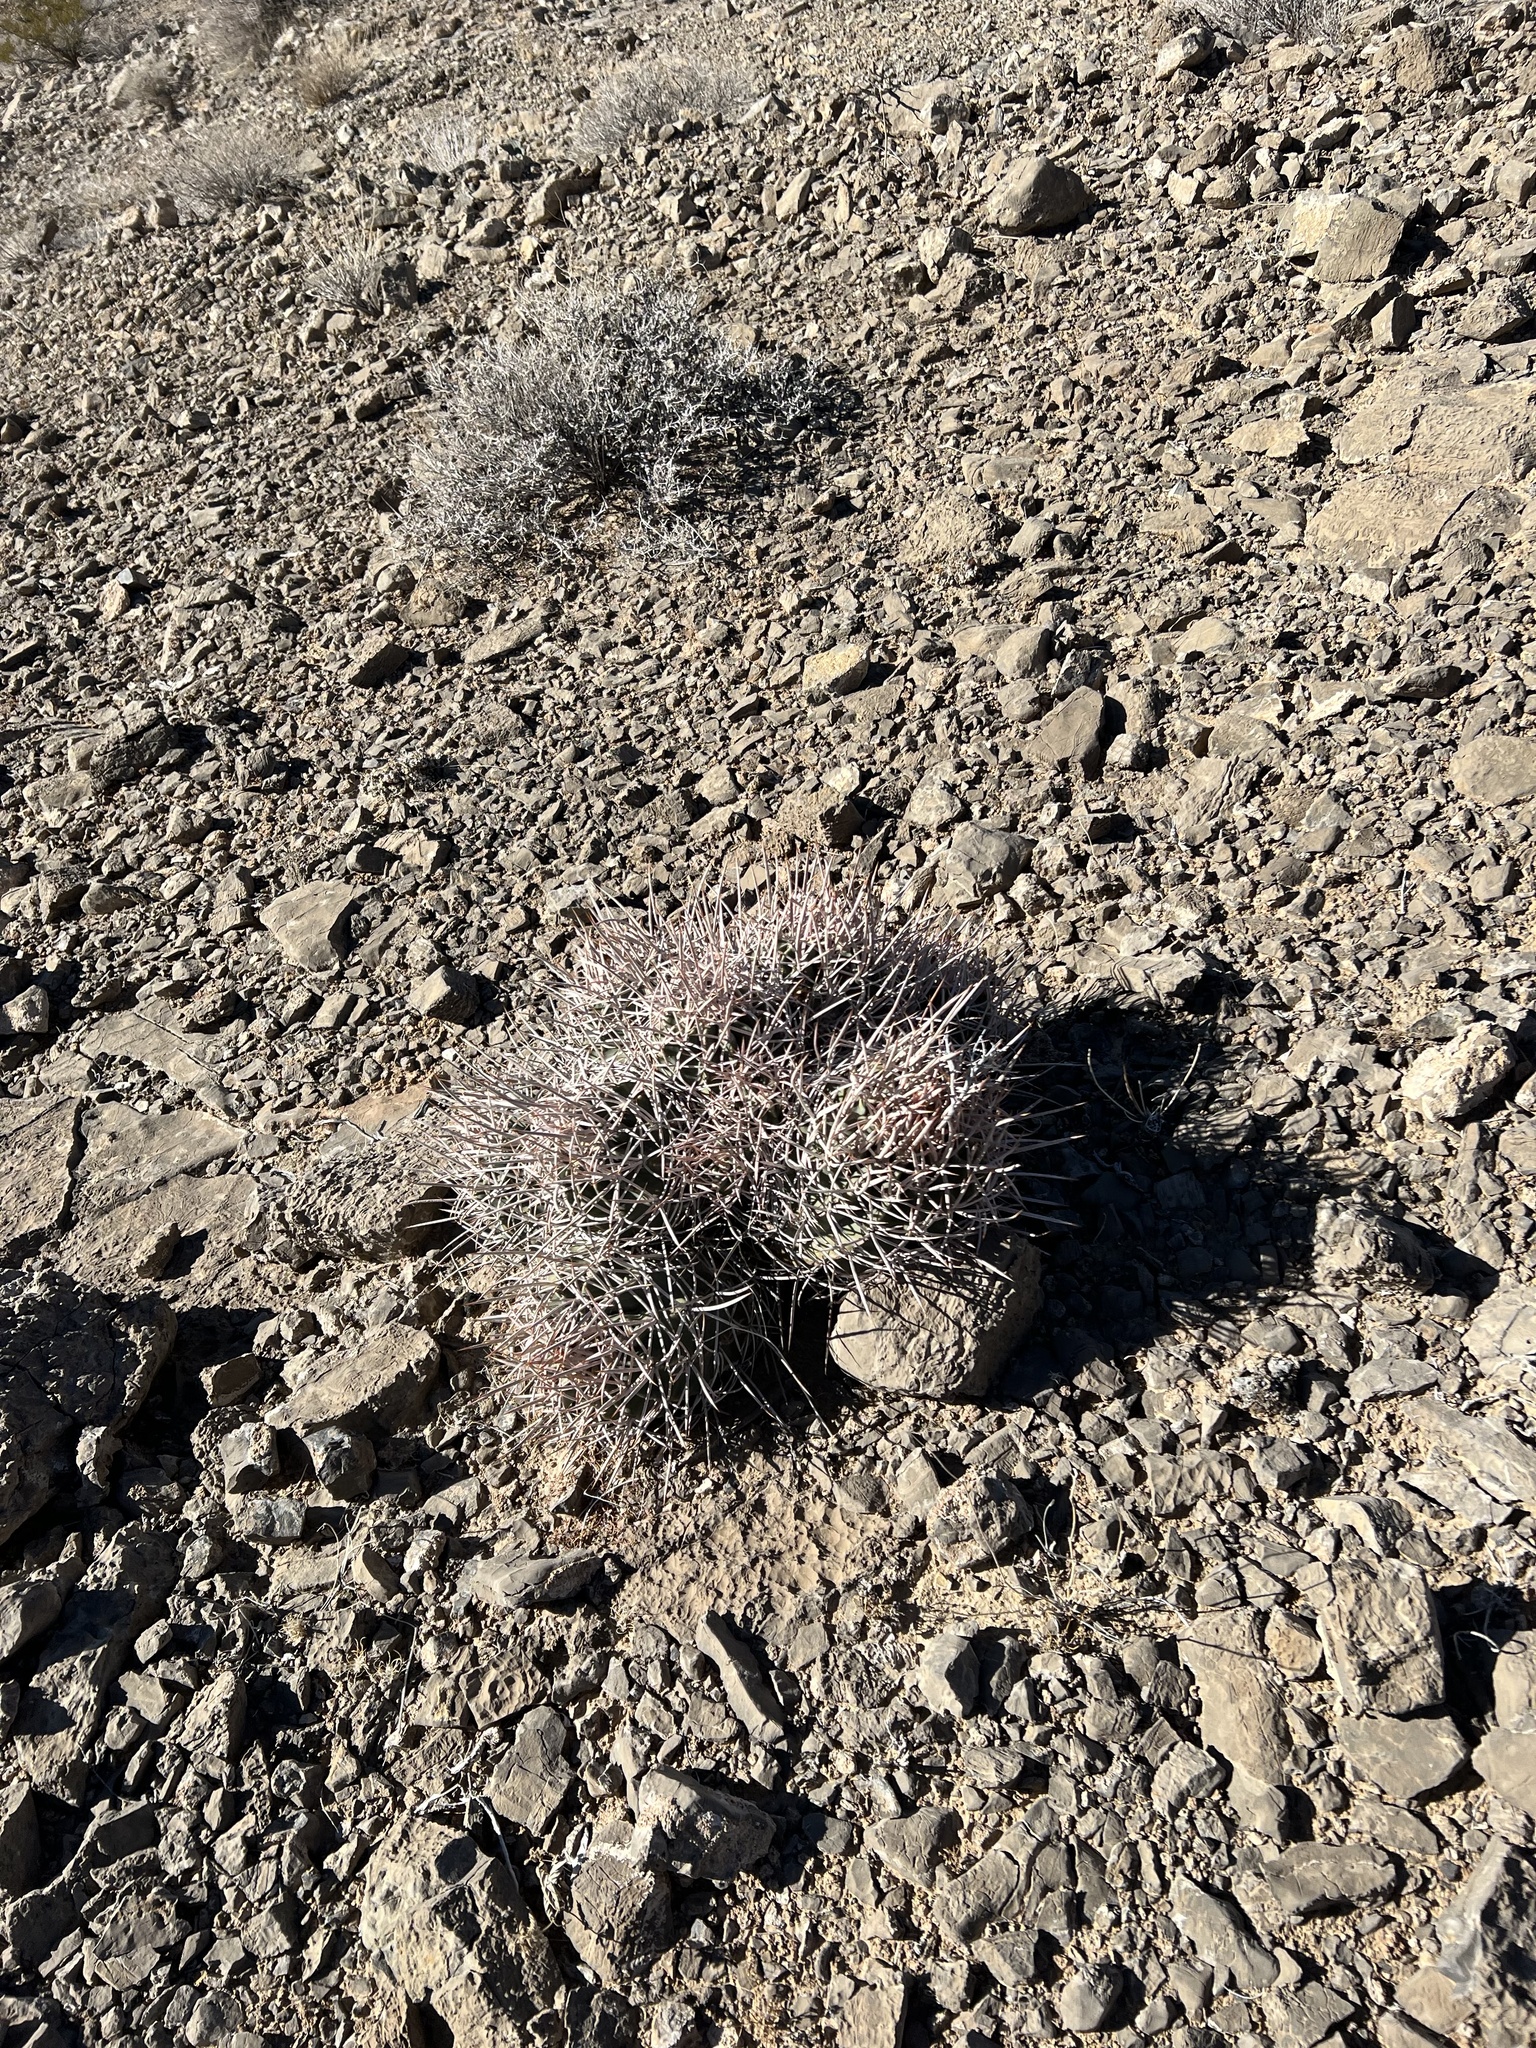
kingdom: Plantae
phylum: Tracheophyta
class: Magnoliopsida
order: Caryophyllales
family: Cactaceae
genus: Echinocactus
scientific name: Echinocactus polycephalus
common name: Cottontop cactus
